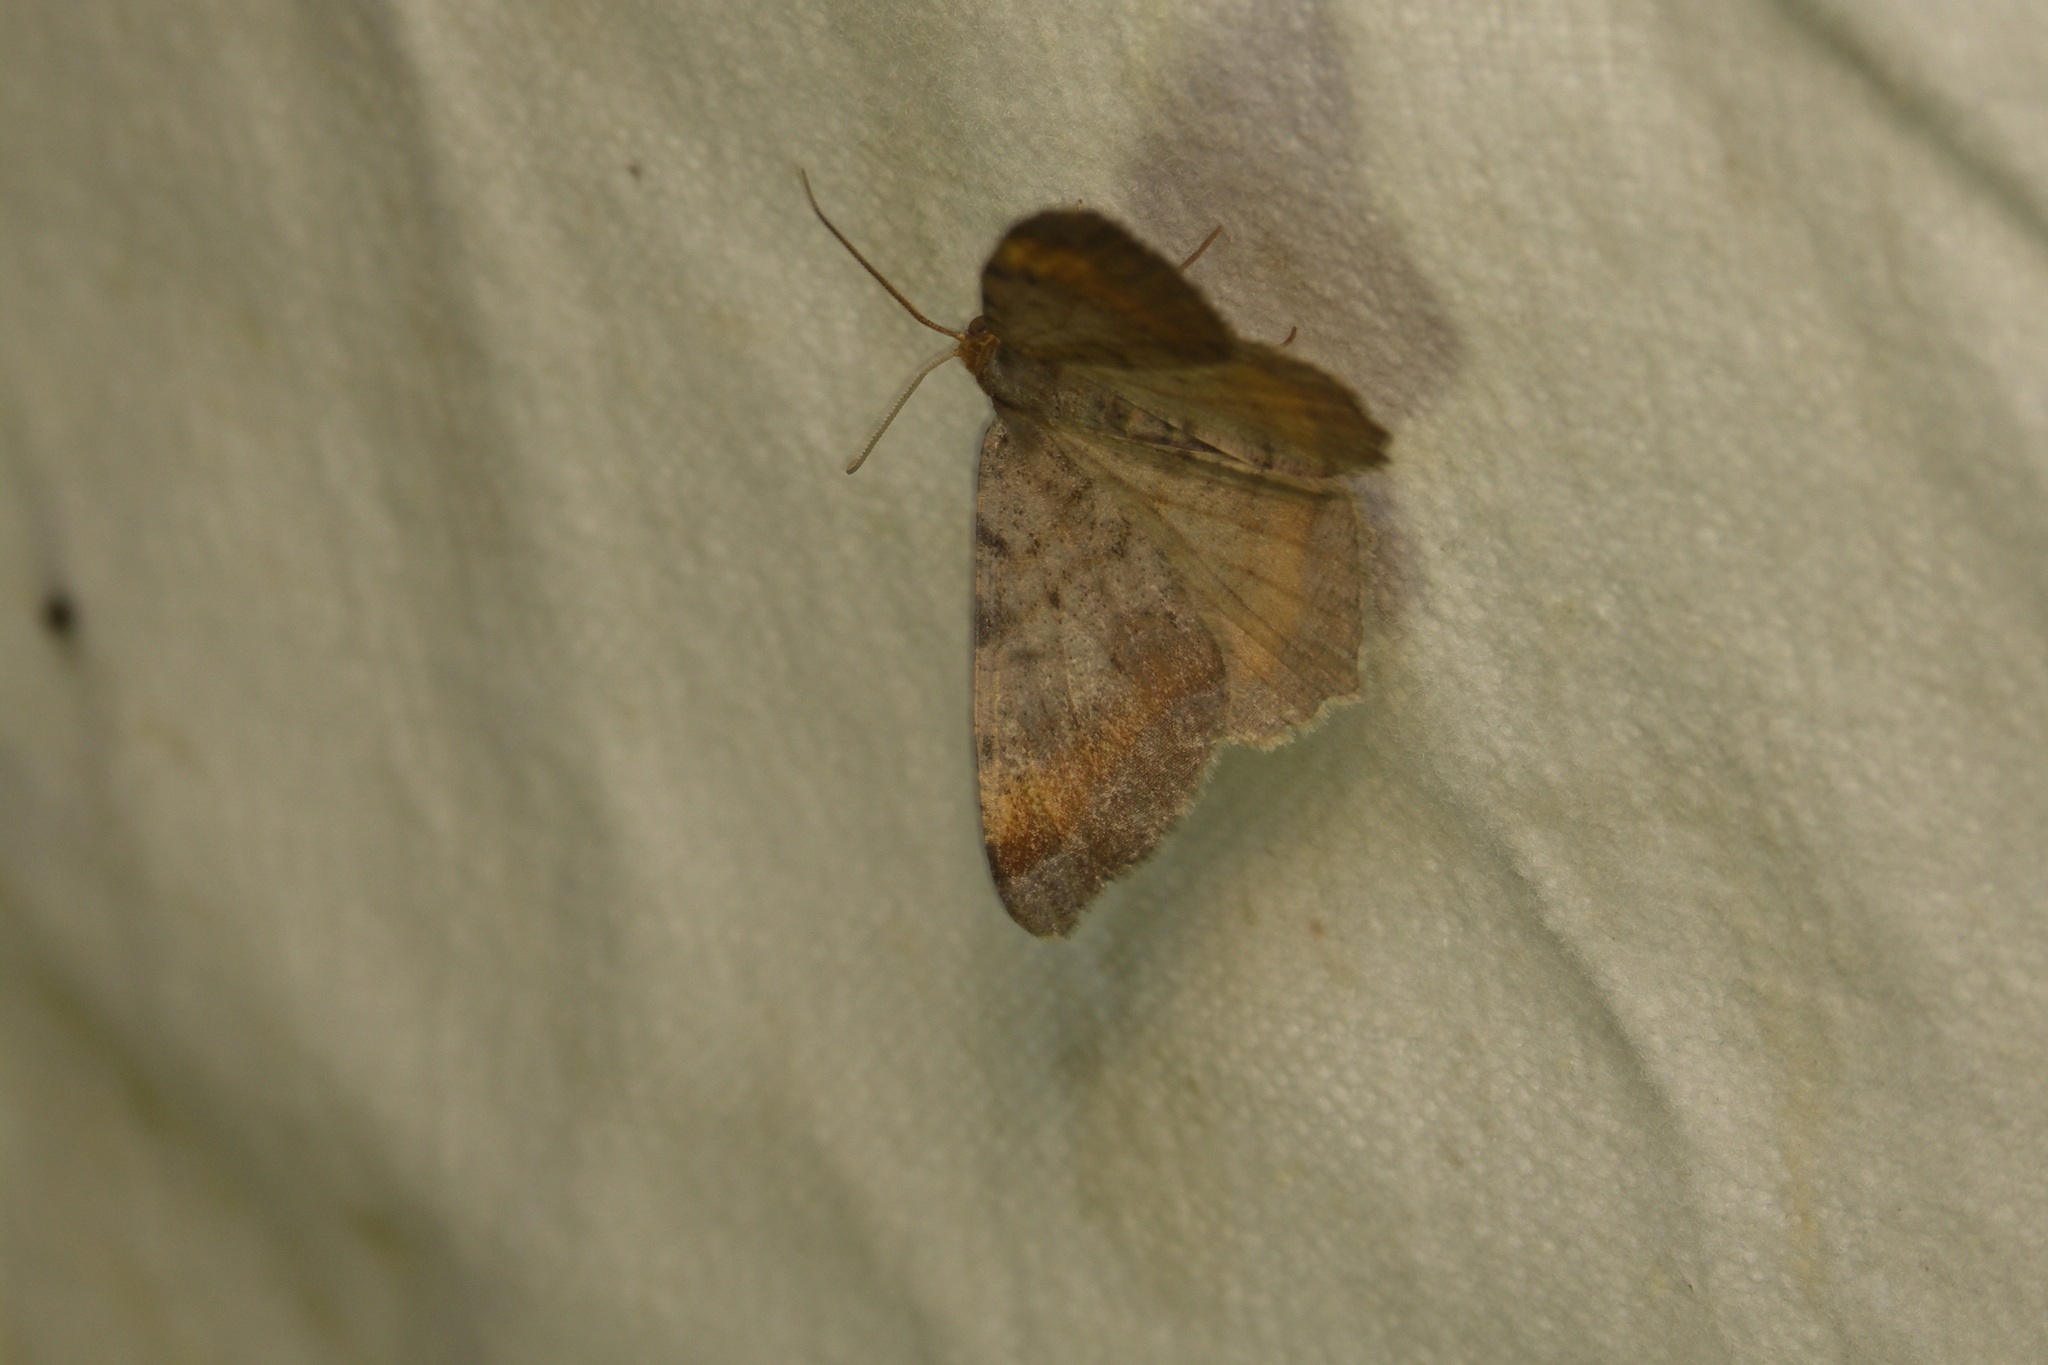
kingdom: Animalia
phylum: Arthropoda
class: Insecta
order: Lepidoptera
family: Geometridae
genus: Macaria
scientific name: Macaria liturata
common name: Tawny-barred angle
